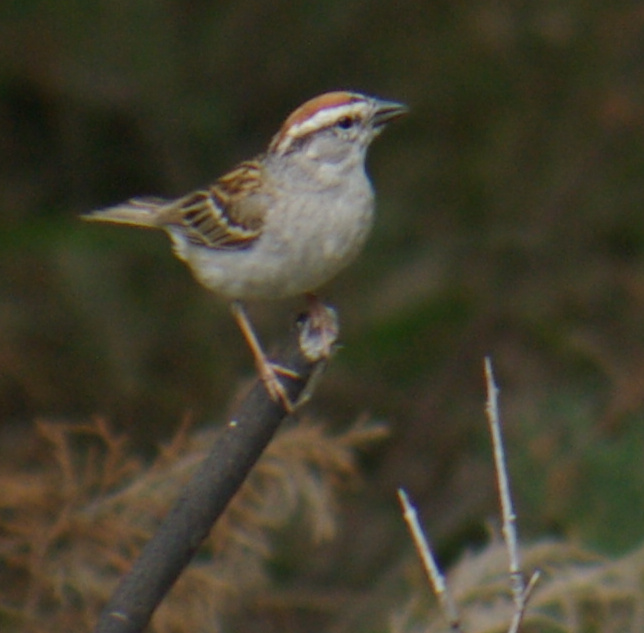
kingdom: Animalia
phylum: Chordata
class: Aves
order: Passeriformes
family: Passerellidae
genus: Spizella
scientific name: Spizella passerina
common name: Chipping sparrow
